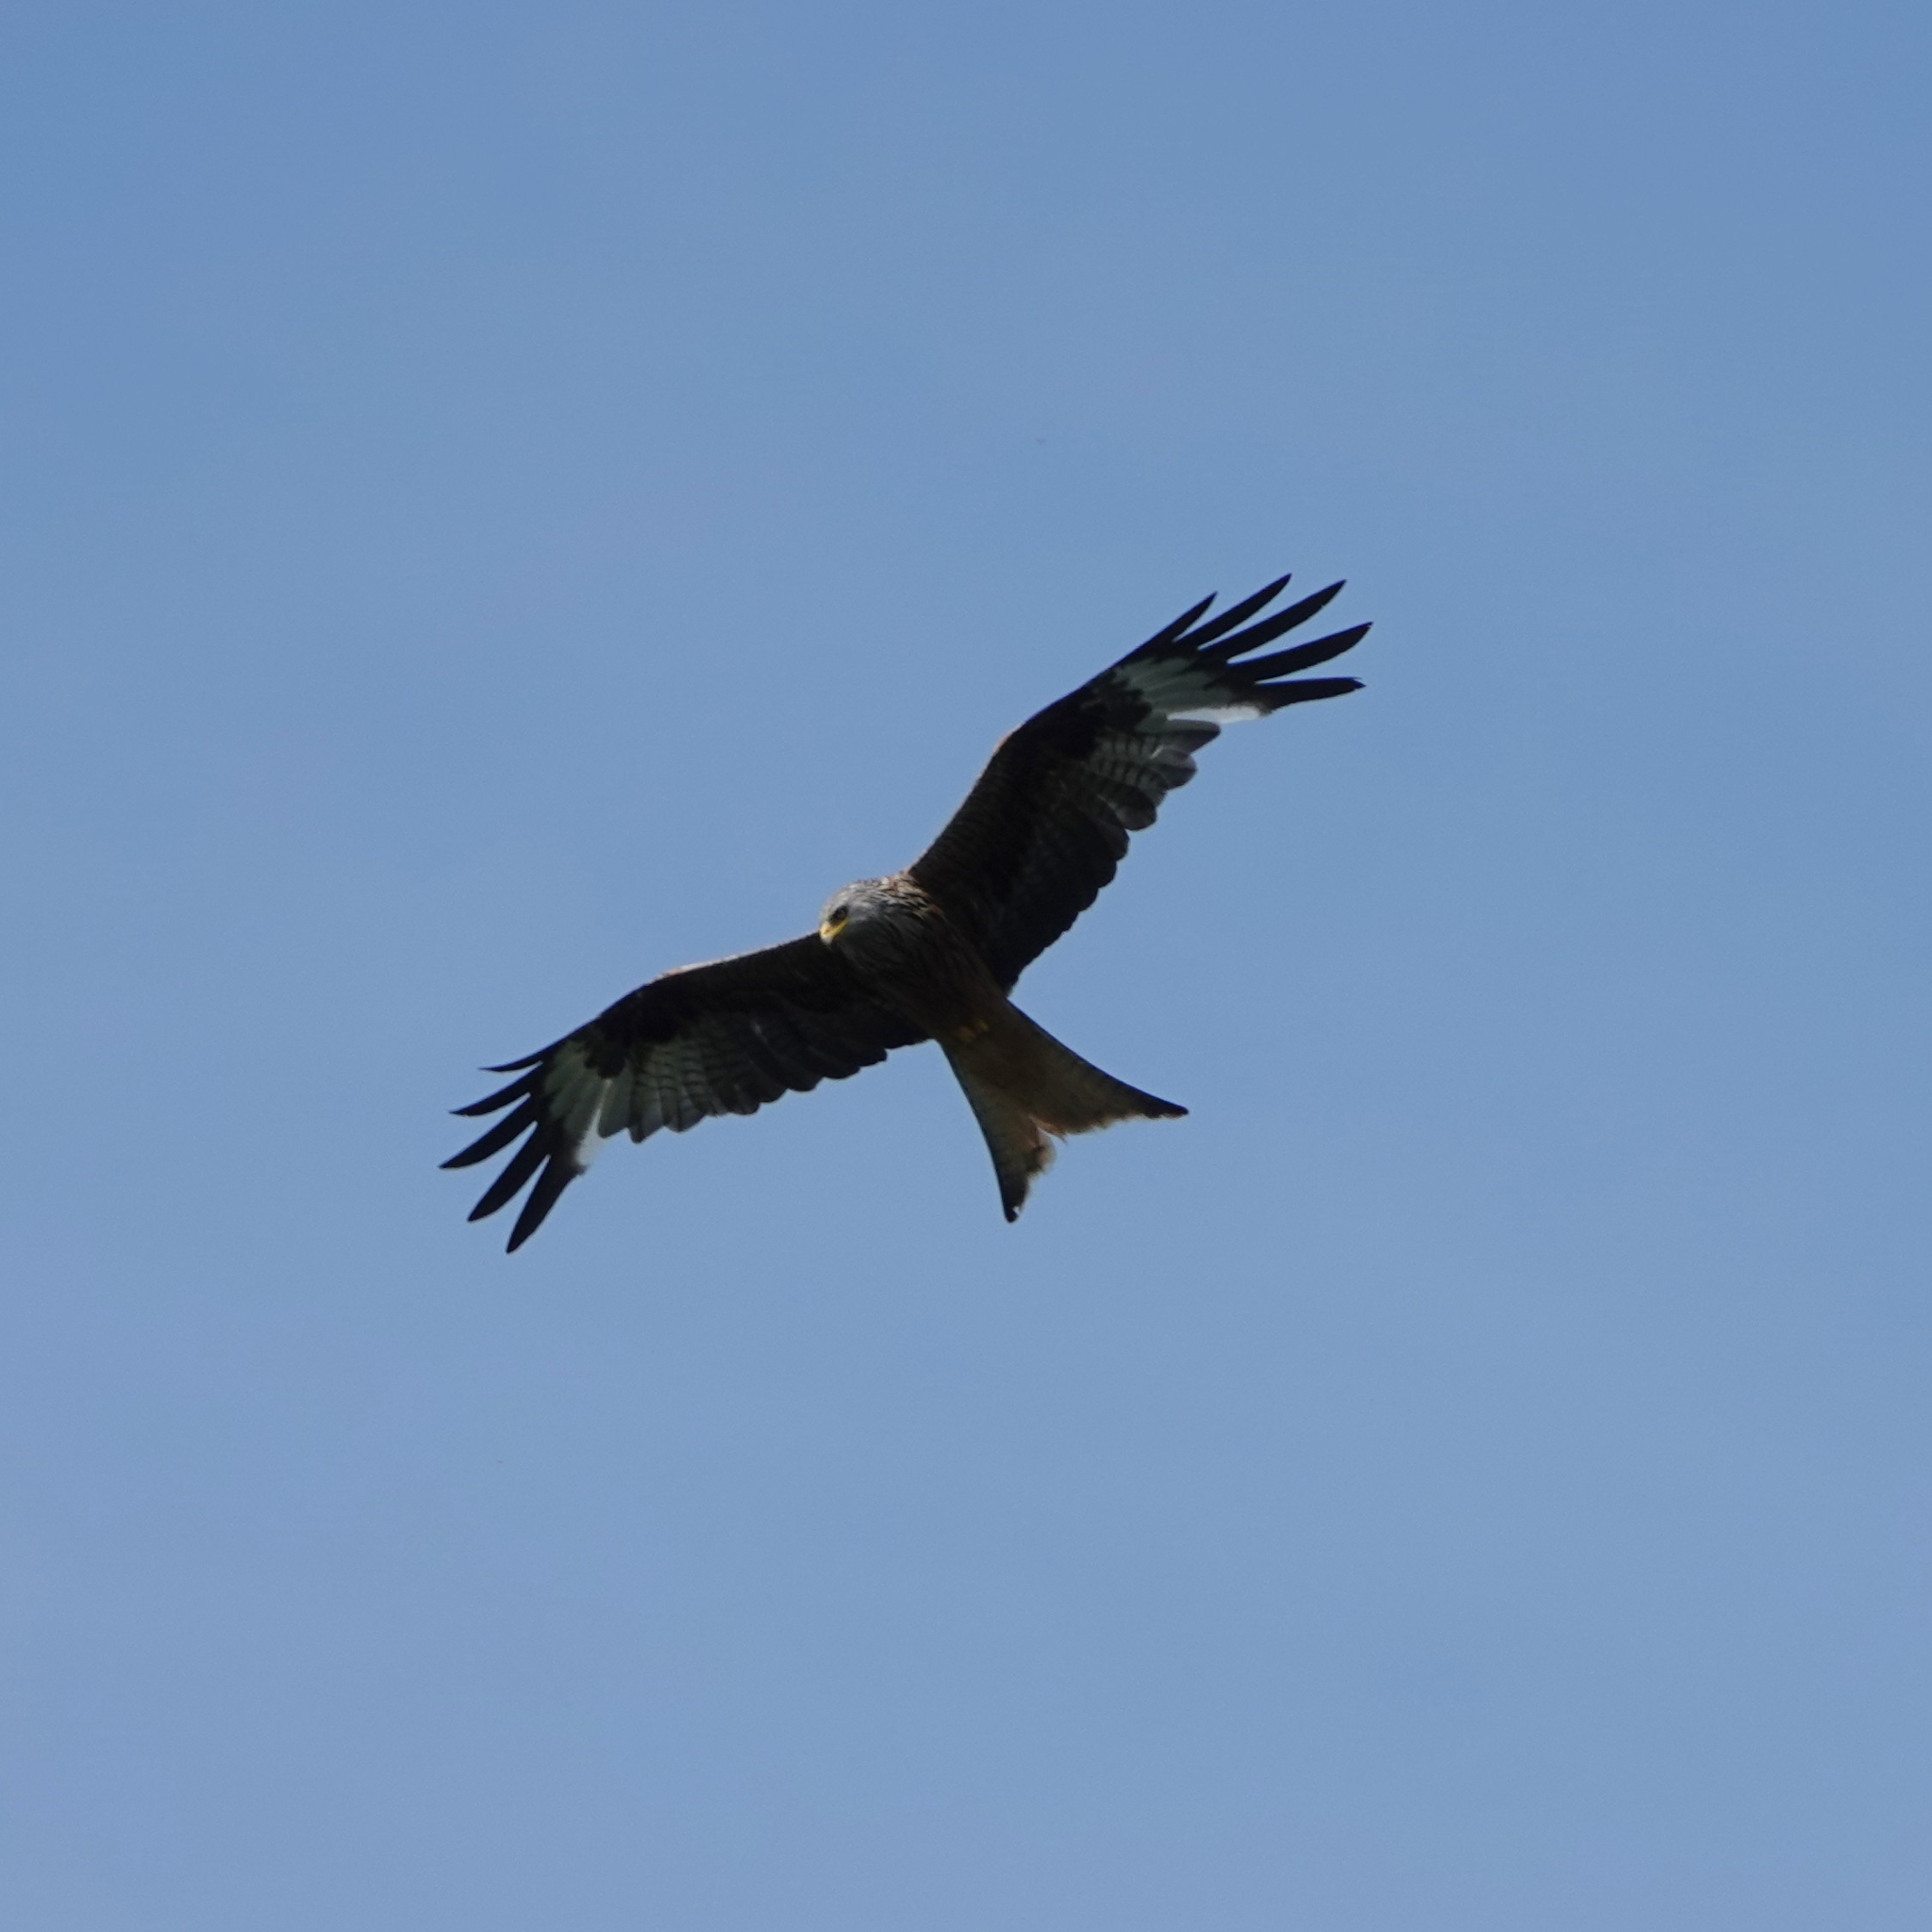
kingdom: Animalia
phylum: Chordata
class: Aves
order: Accipitriformes
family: Accipitridae
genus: Milvus
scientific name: Milvus milvus
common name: Red kite
